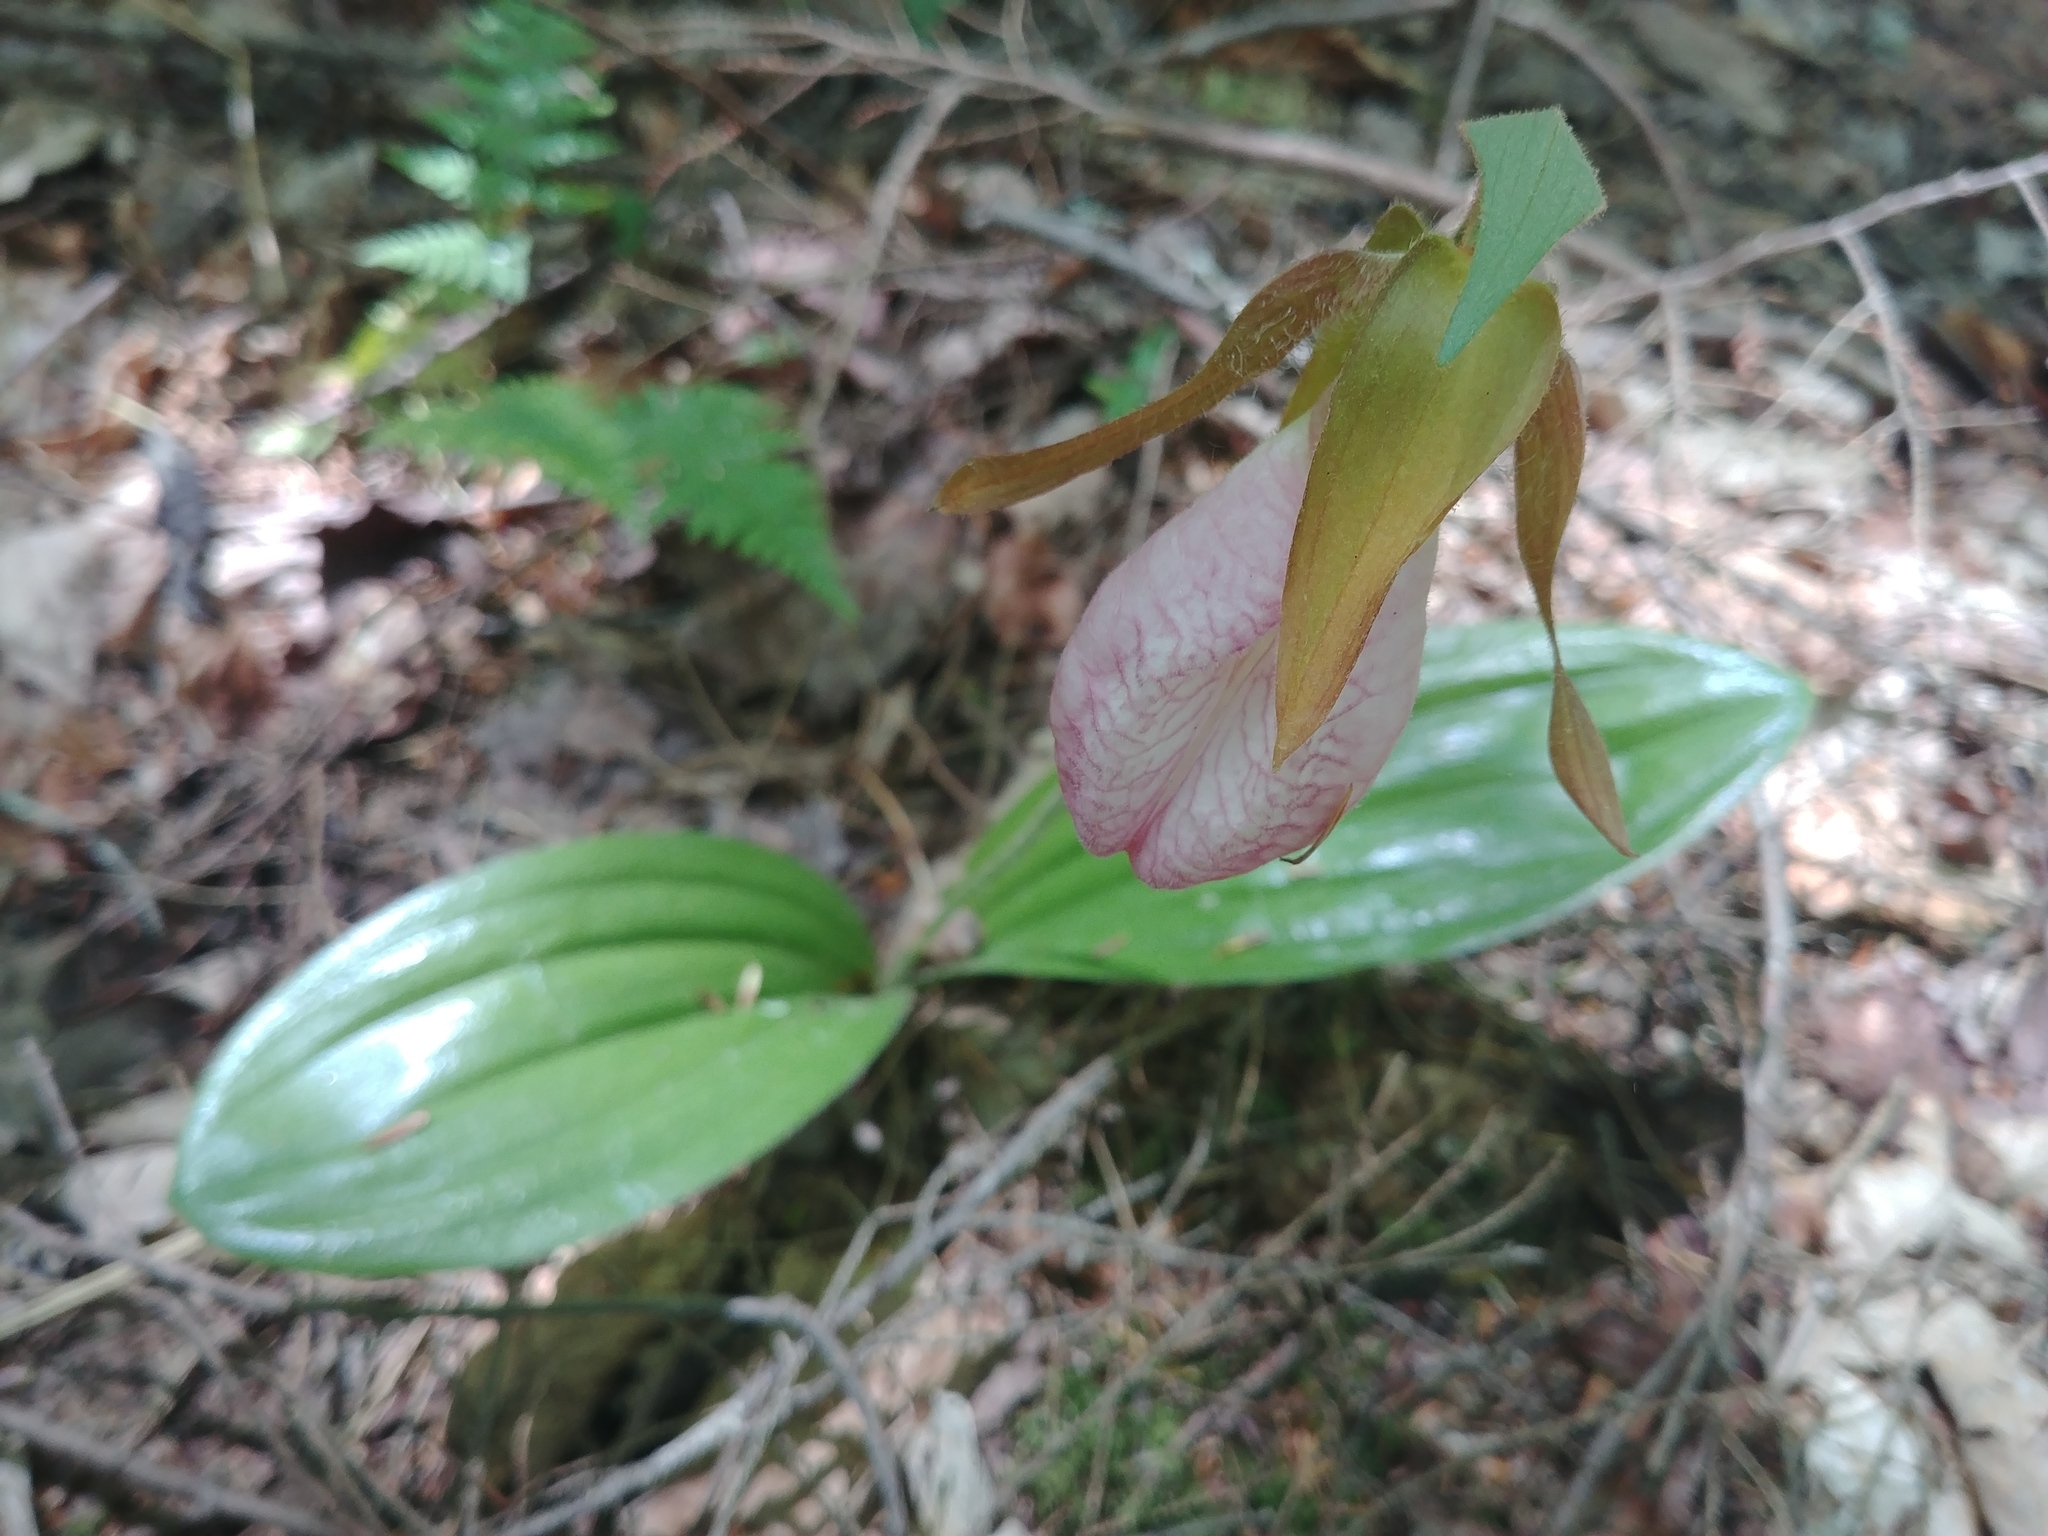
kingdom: Plantae
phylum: Tracheophyta
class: Liliopsida
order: Asparagales
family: Orchidaceae
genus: Cypripedium
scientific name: Cypripedium acaule
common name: Pink lady's-slipper
